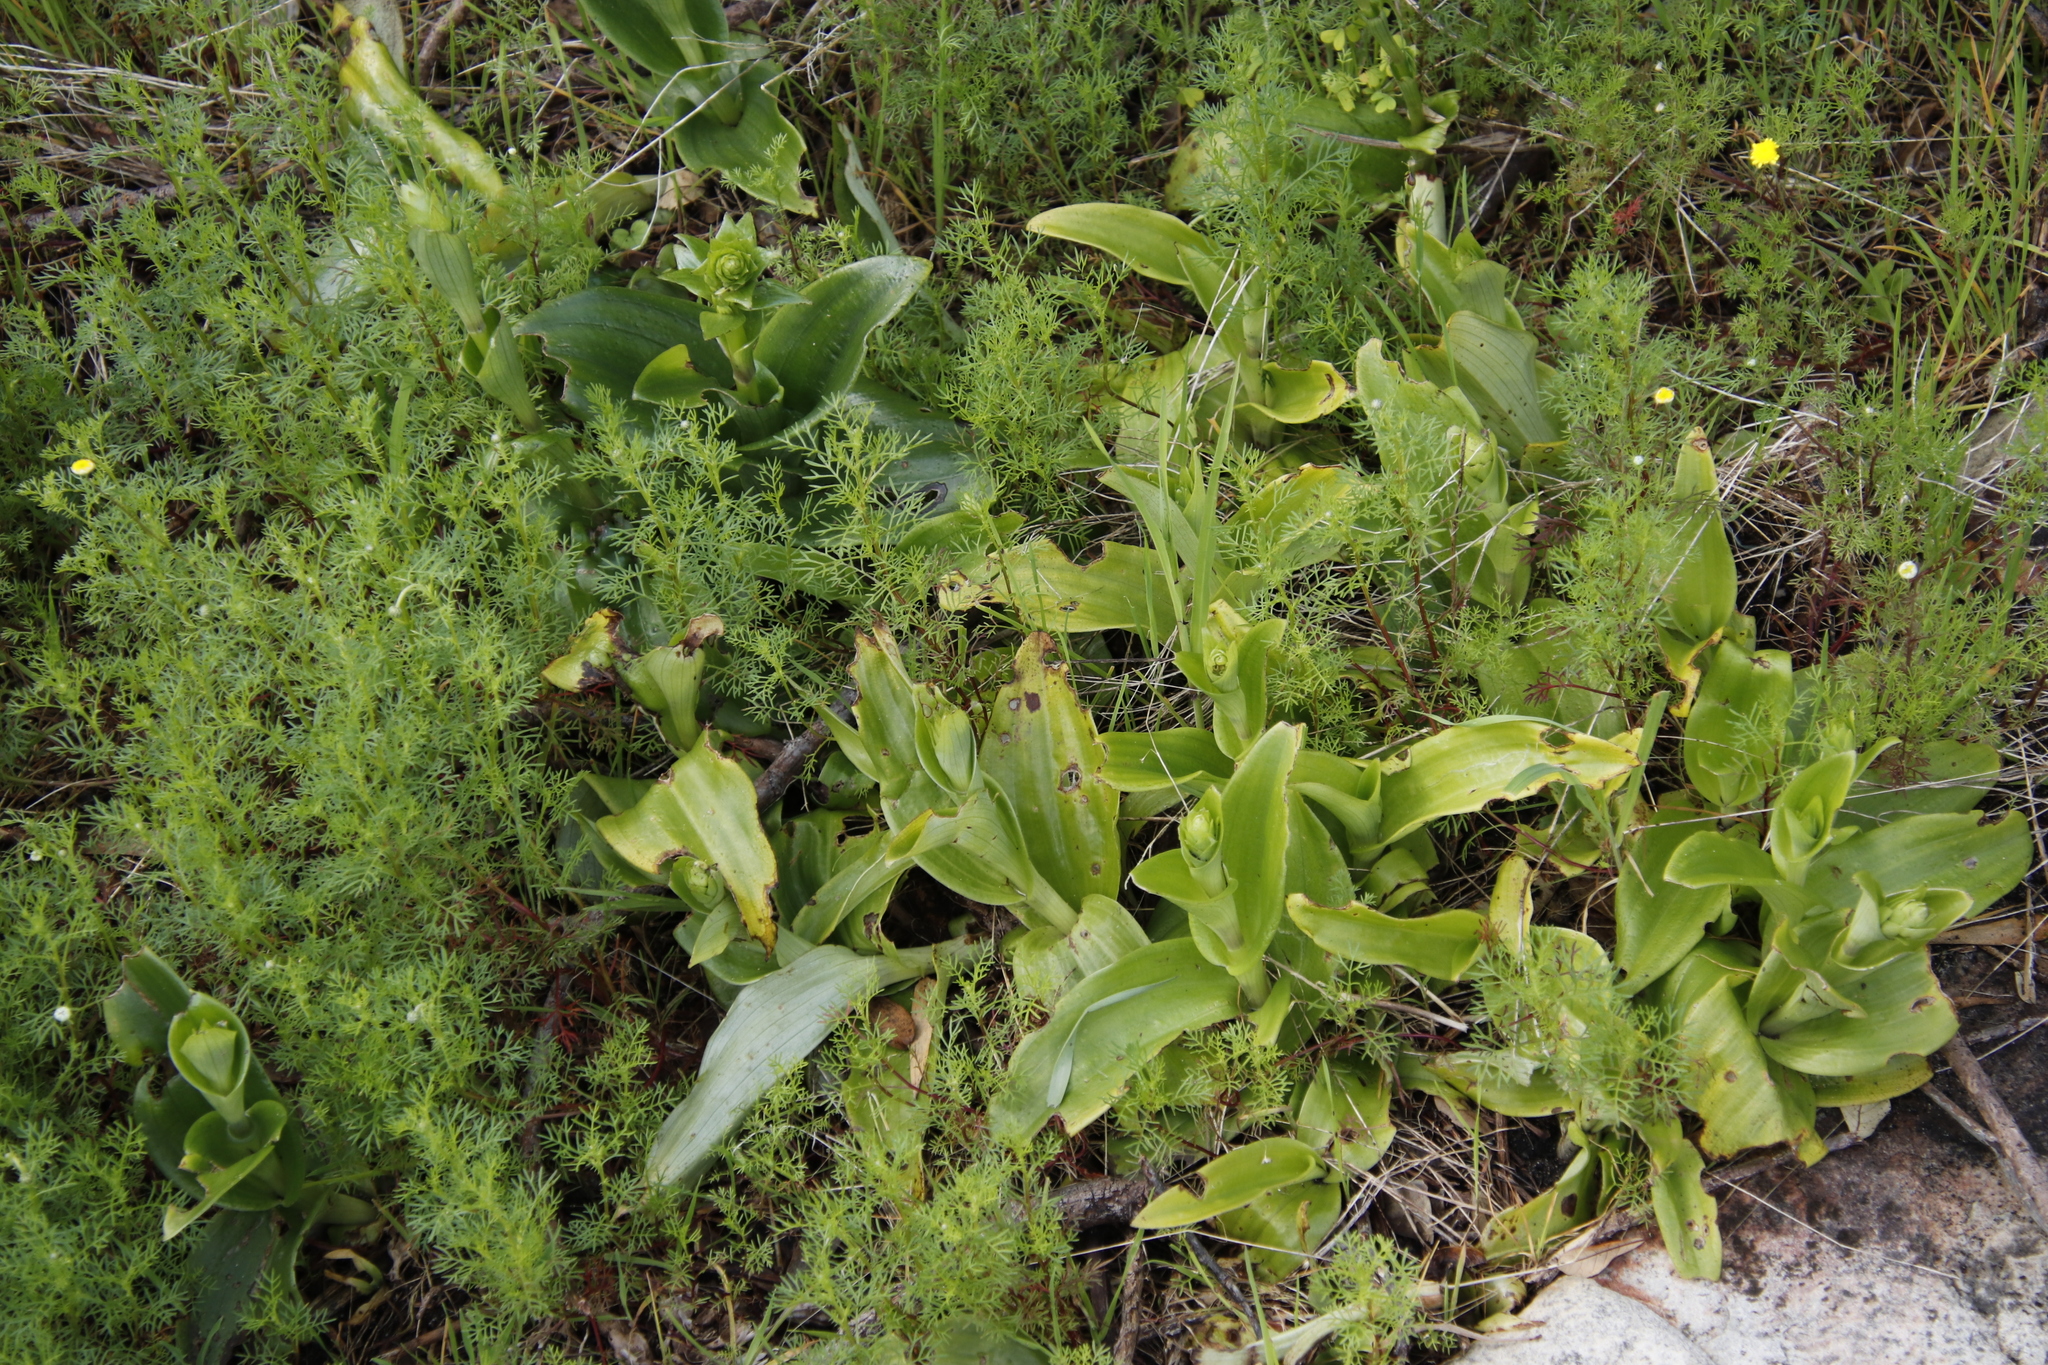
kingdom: Plantae
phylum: Tracheophyta
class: Liliopsida
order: Asparagales
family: Orchidaceae
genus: Satyrium
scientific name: Satyrium odorum
